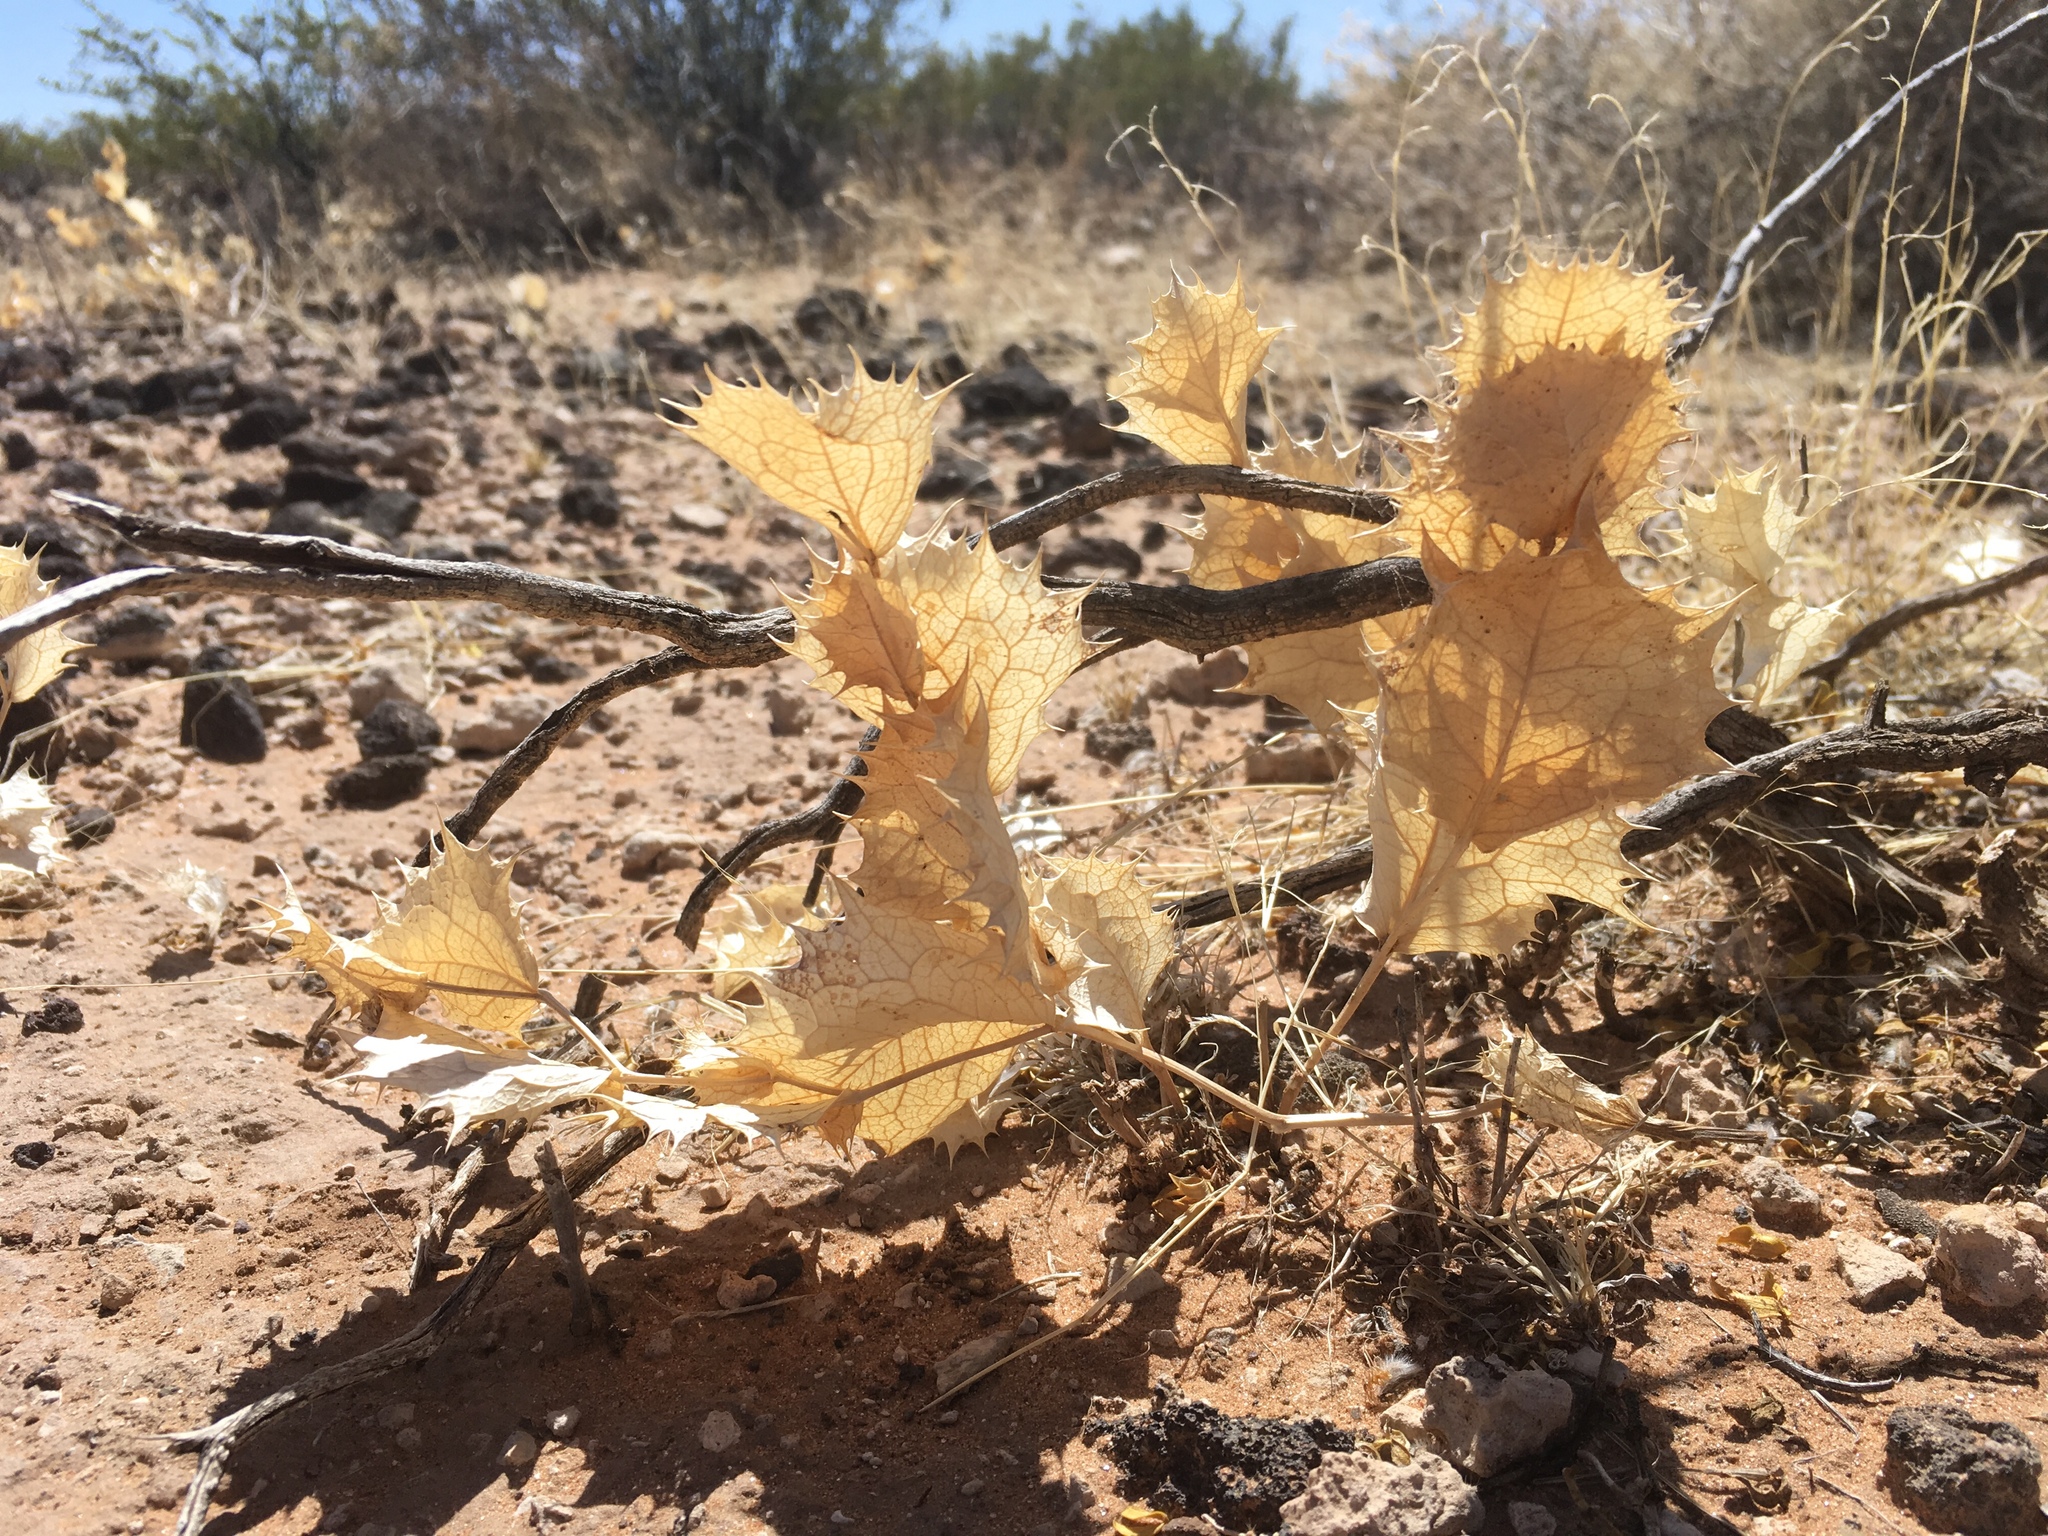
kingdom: Plantae
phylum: Tracheophyta
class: Magnoliopsida
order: Asterales
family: Asteraceae
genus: Acourtia
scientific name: Acourtia nana
